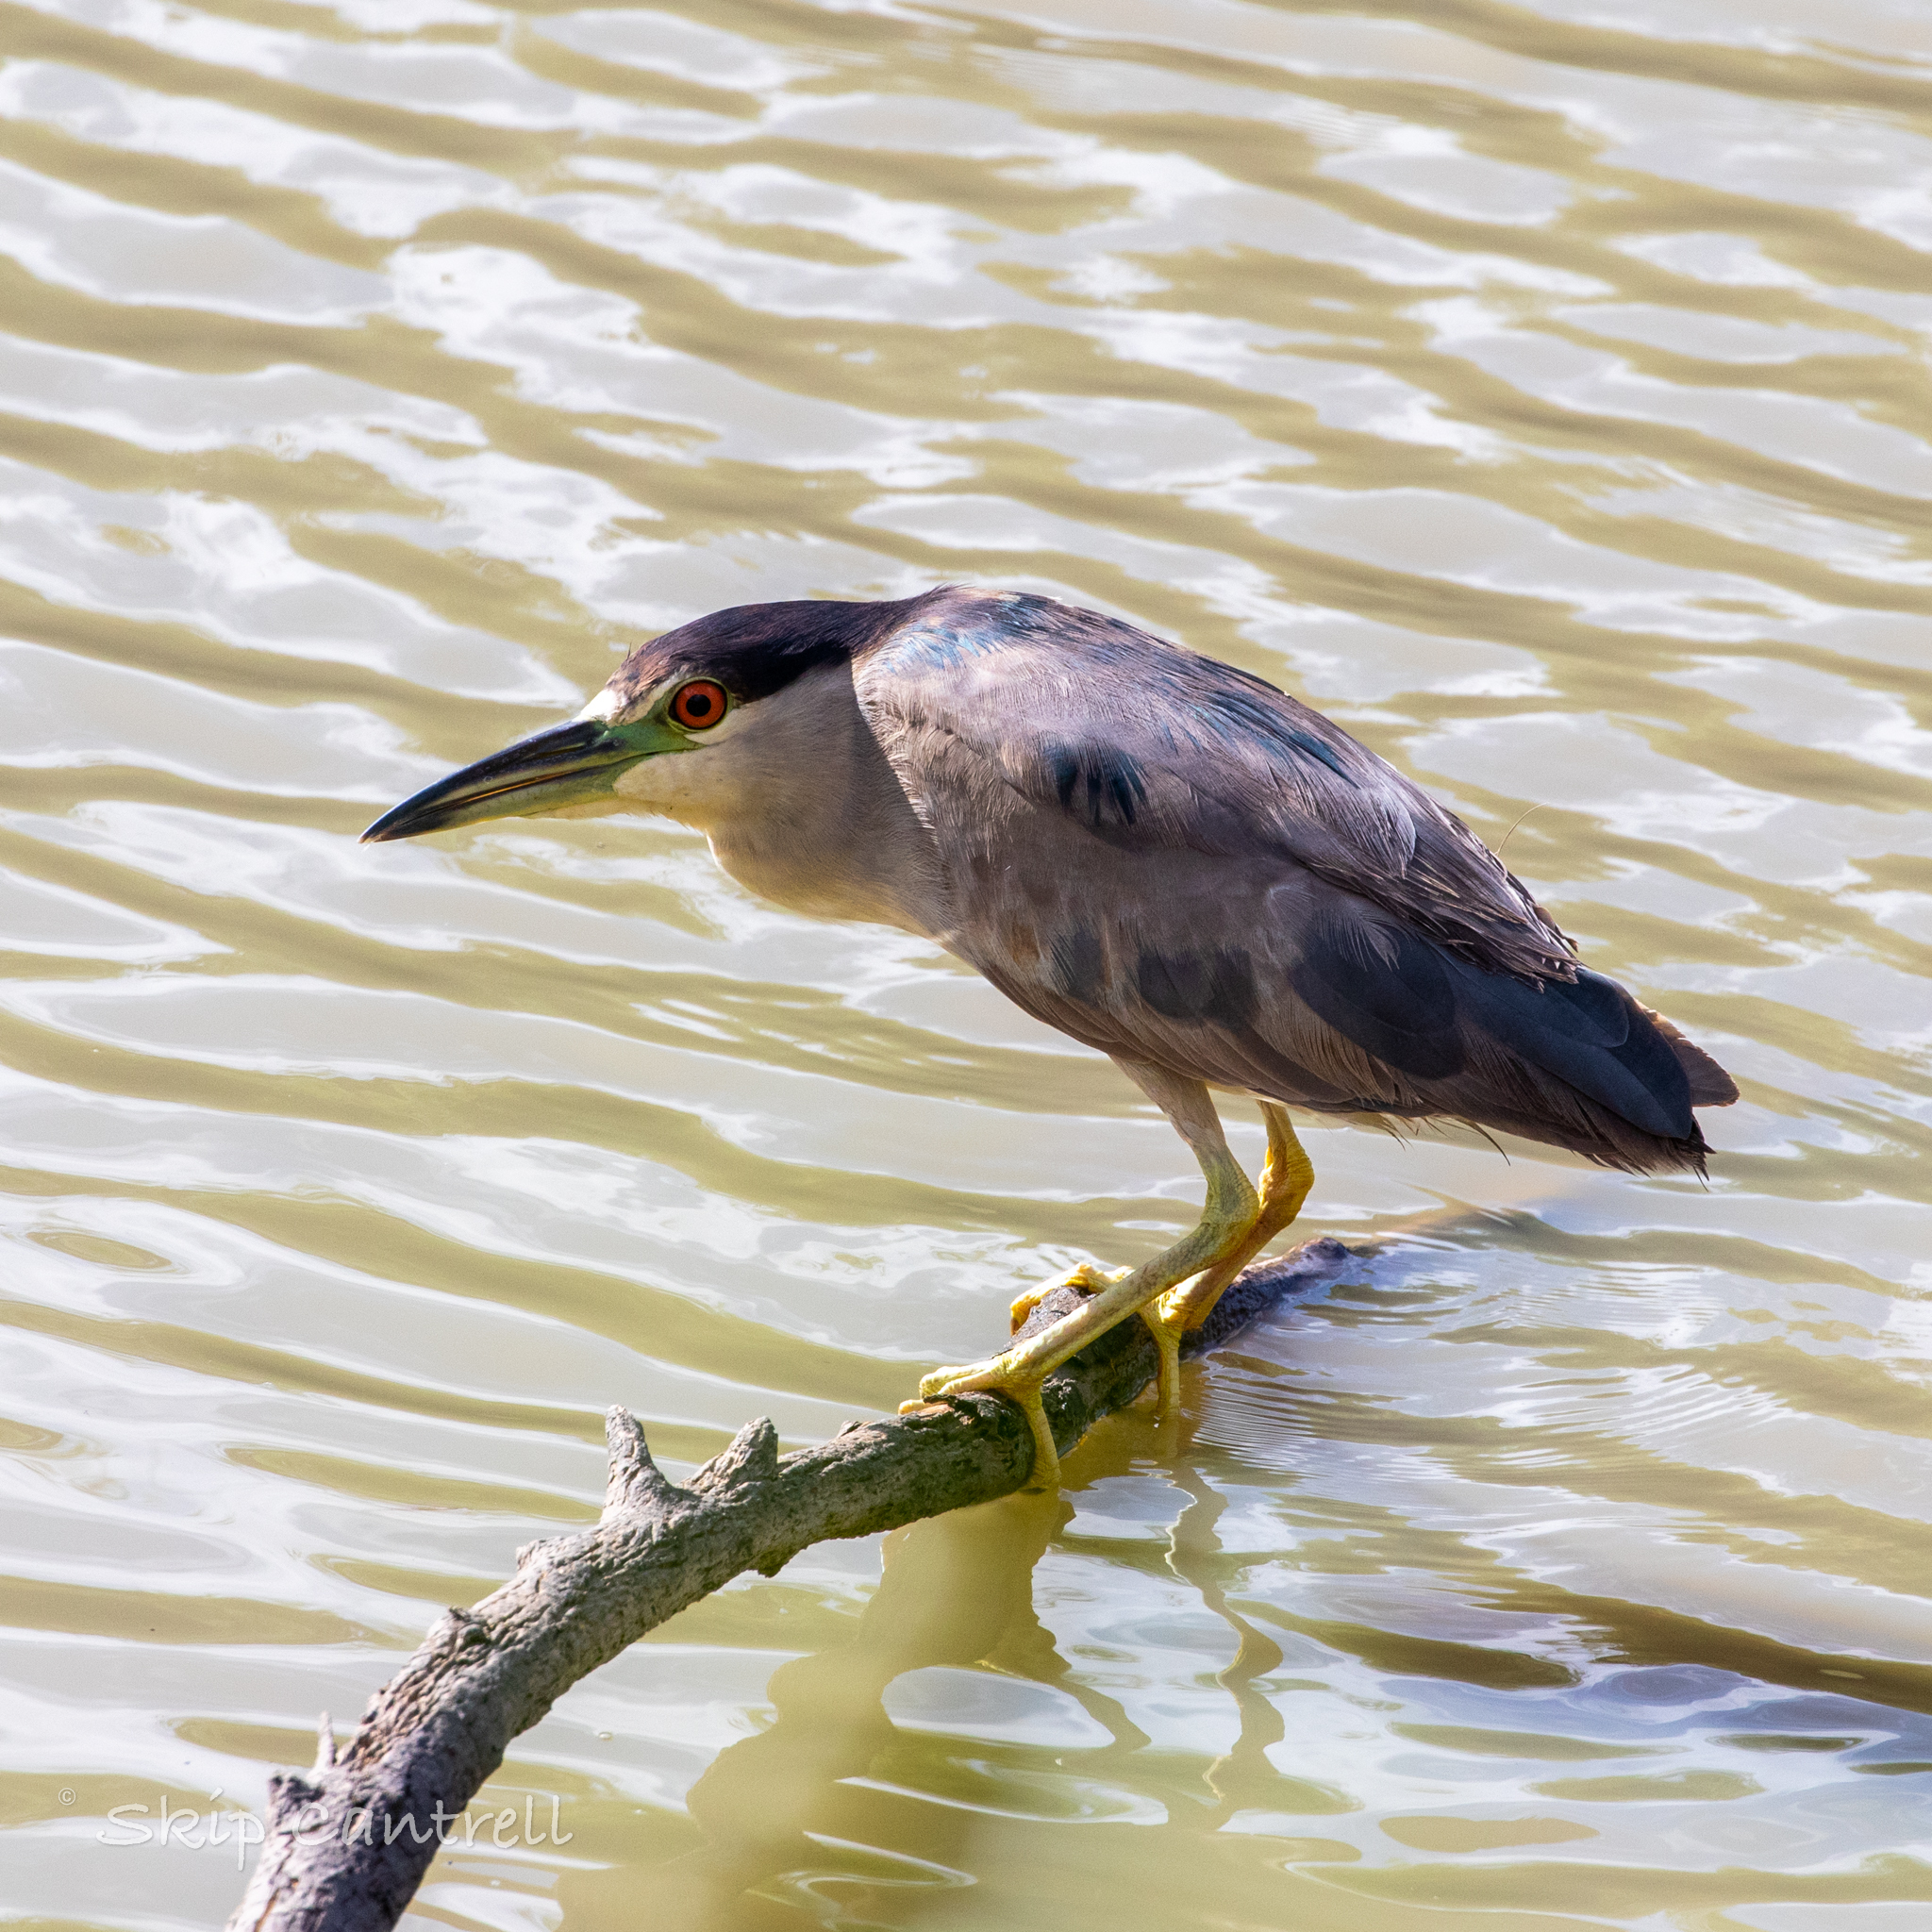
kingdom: Animalia
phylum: Chordata
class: Aves
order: Pelecaniformes
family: Ardeidae
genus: Nycticorax
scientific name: Nycticorax nycticorax
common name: Black-crowned night heron
